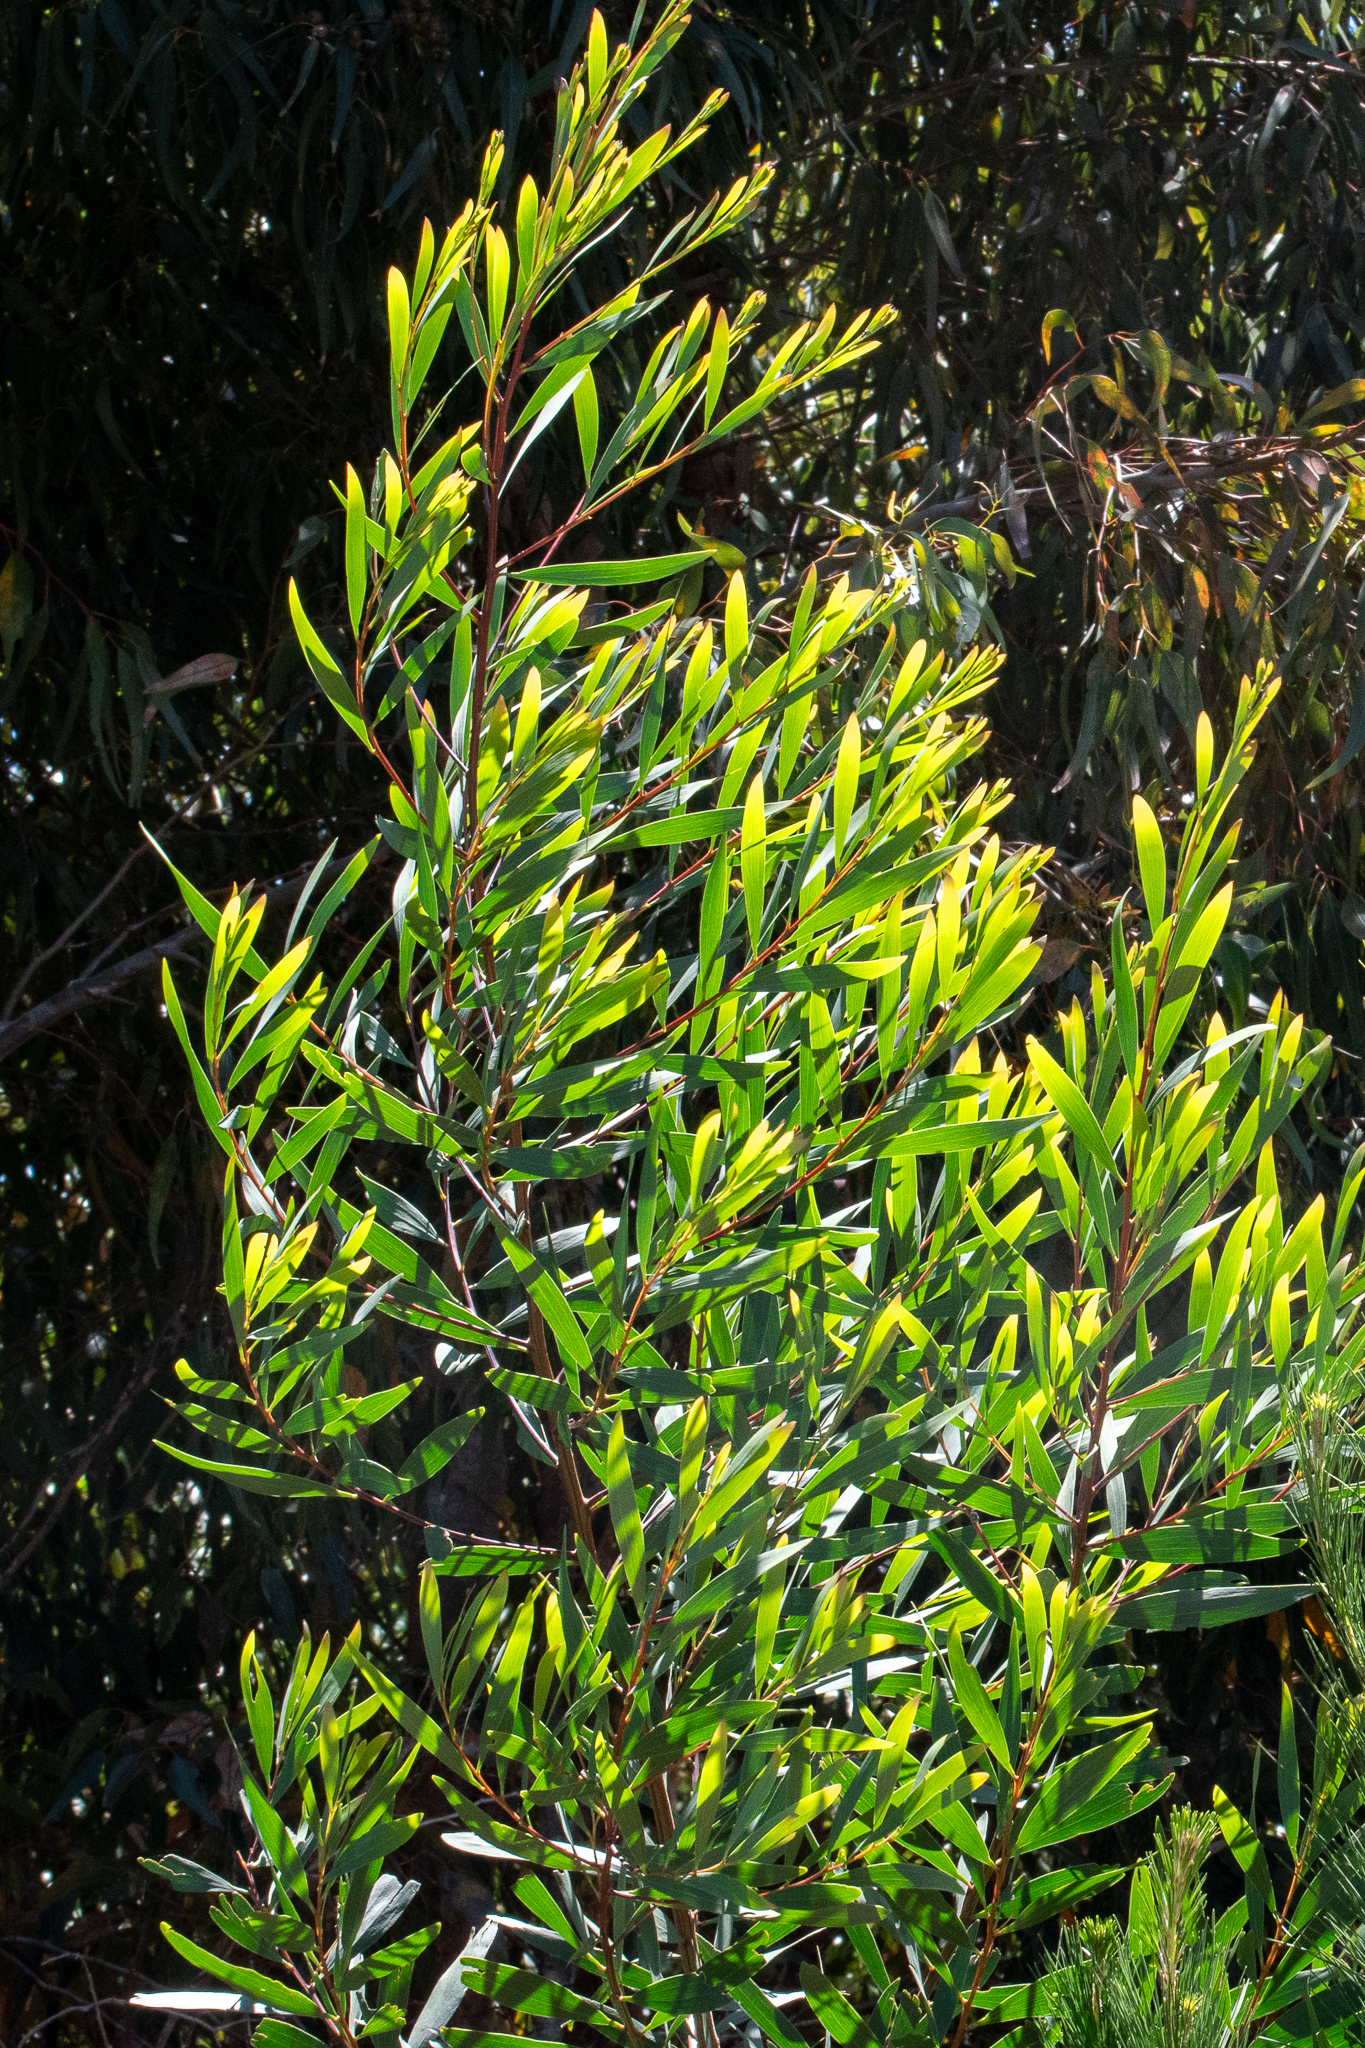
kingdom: Plantae
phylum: Tracheophyta
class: Magnoliopsida
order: Fabales
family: Fabaceae
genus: Acacia
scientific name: Acacia longifolia
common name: Sydney golden wattle
